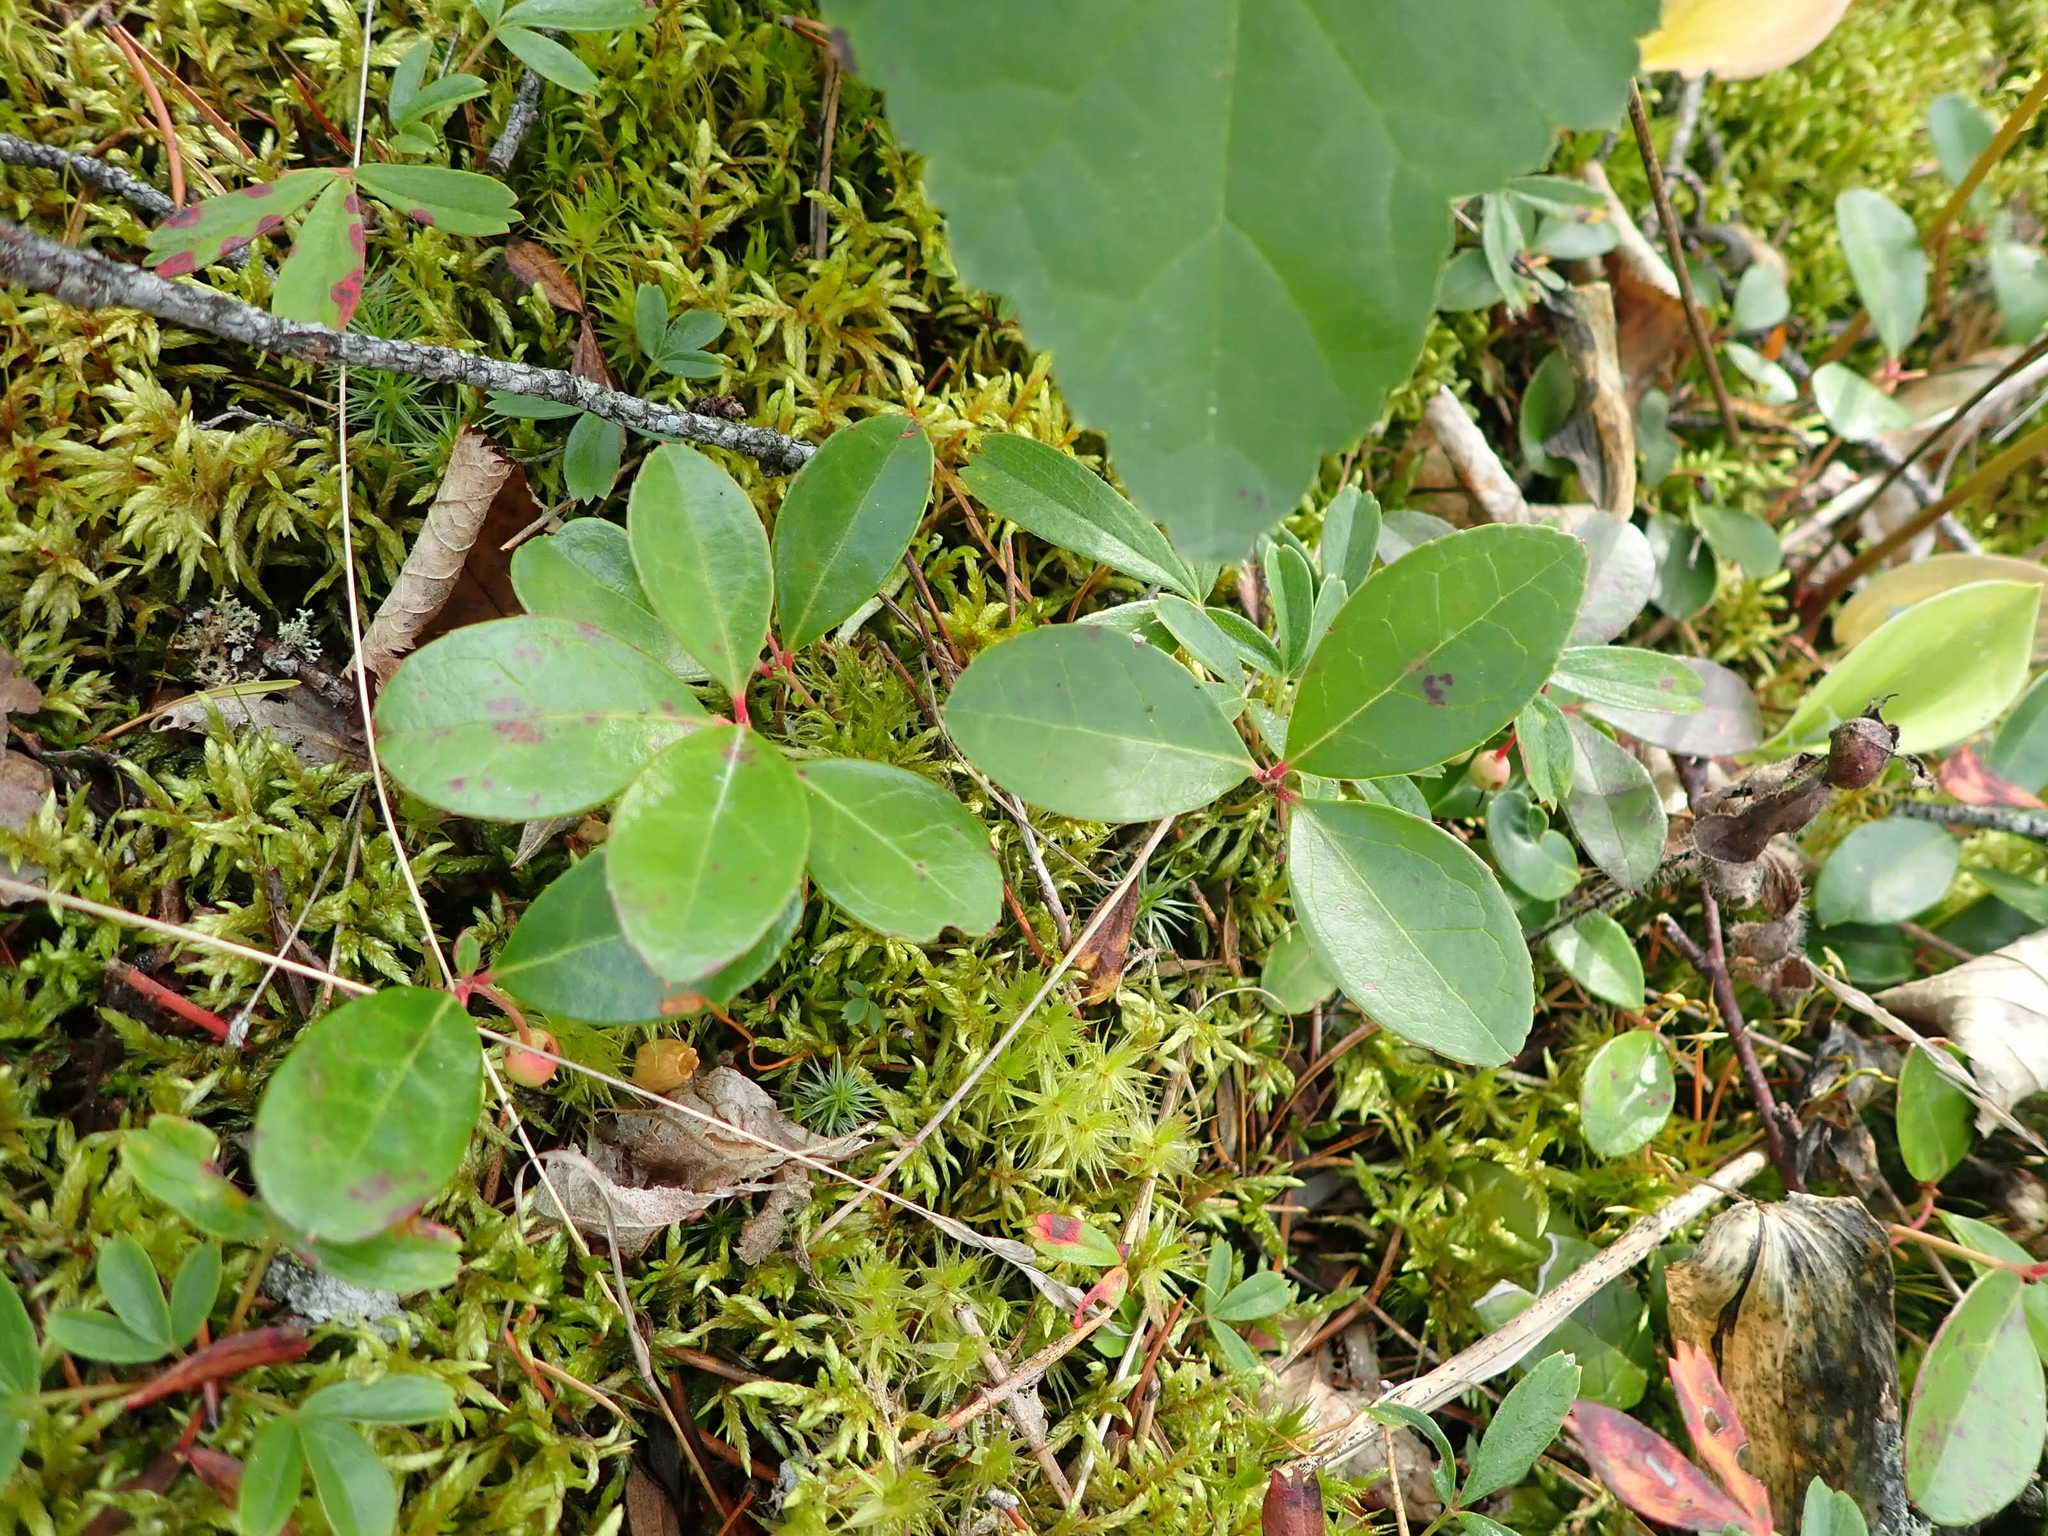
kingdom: Plantae
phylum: Tracheophyta
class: Magnoliopsida
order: Ericales
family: Ericaceae
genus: Gaultheria
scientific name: Gaultheria procumbens
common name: Checkerberry
